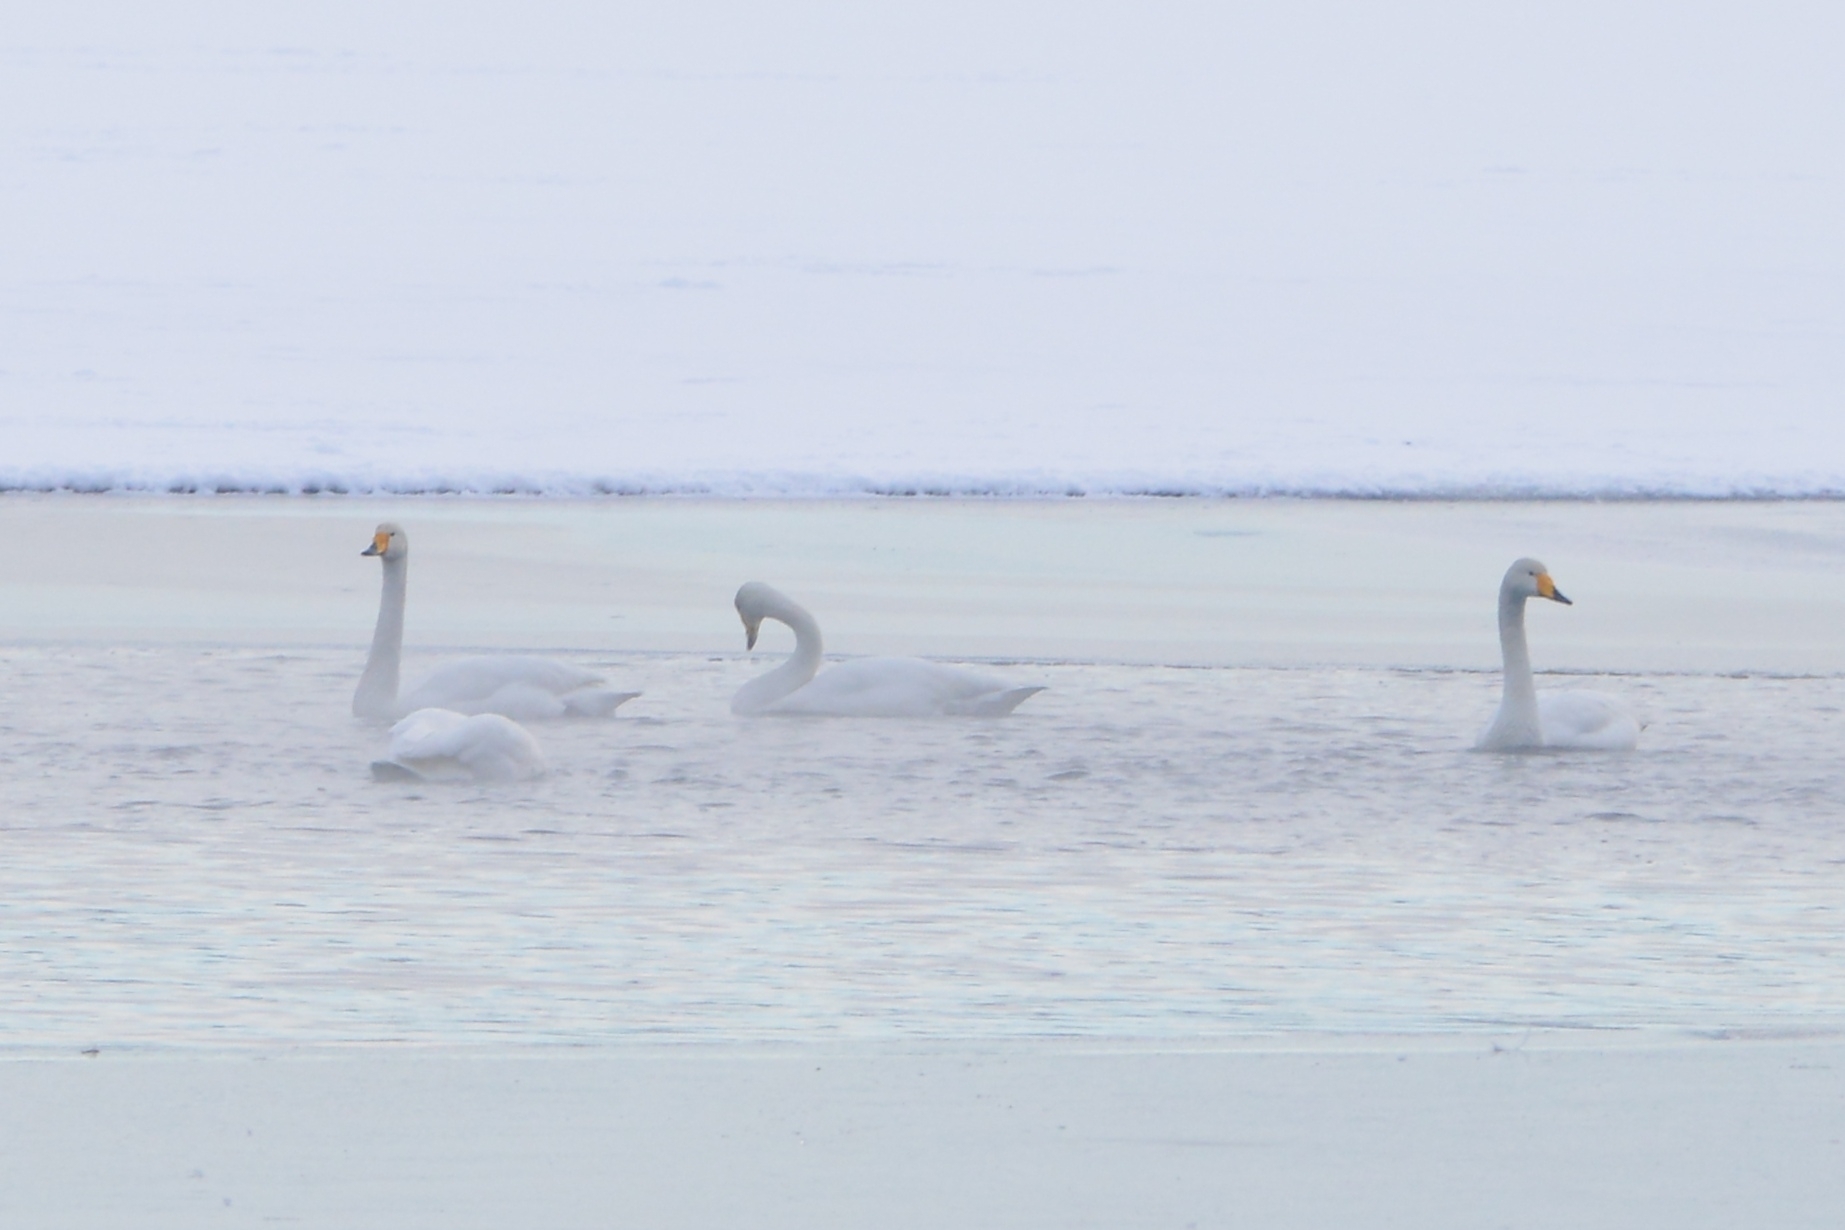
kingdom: Animalia
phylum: Chordata
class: Aves
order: Anseriformes
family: Anatidae
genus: Cygnus
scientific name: Cygnus cygnus
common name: Whooper swan
